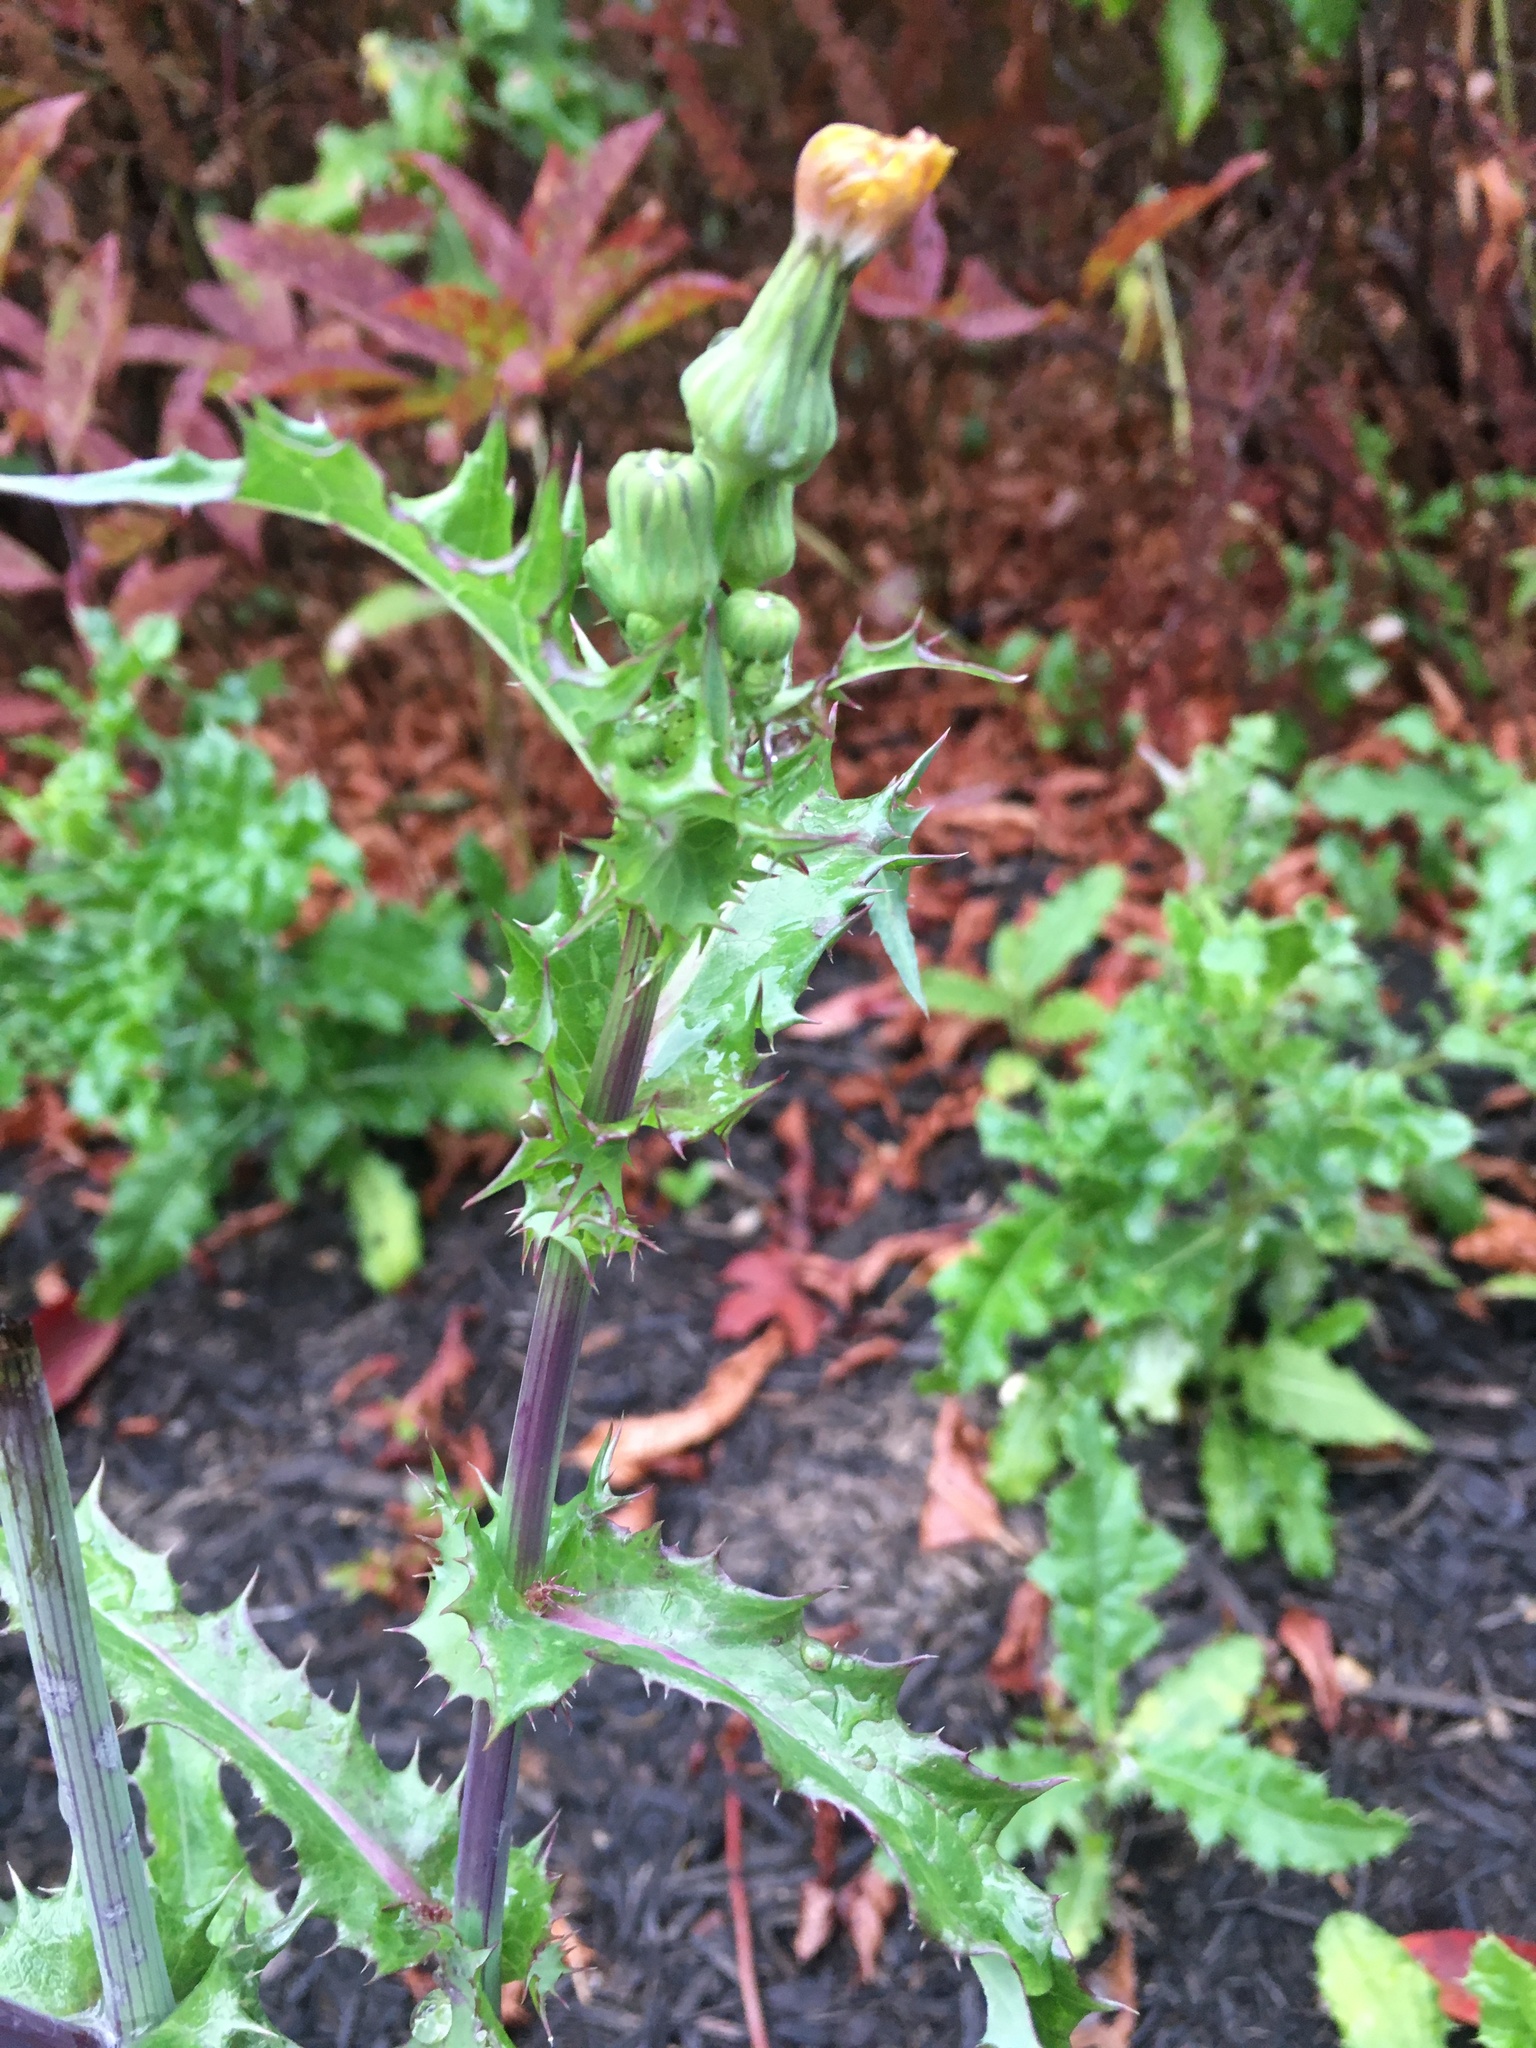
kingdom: Plantae
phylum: Tracheophyta
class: Magnoliopsida
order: Asterales
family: Asteraceae
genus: Sonchus
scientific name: Sonchus asper
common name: Prickly sow-thistle
